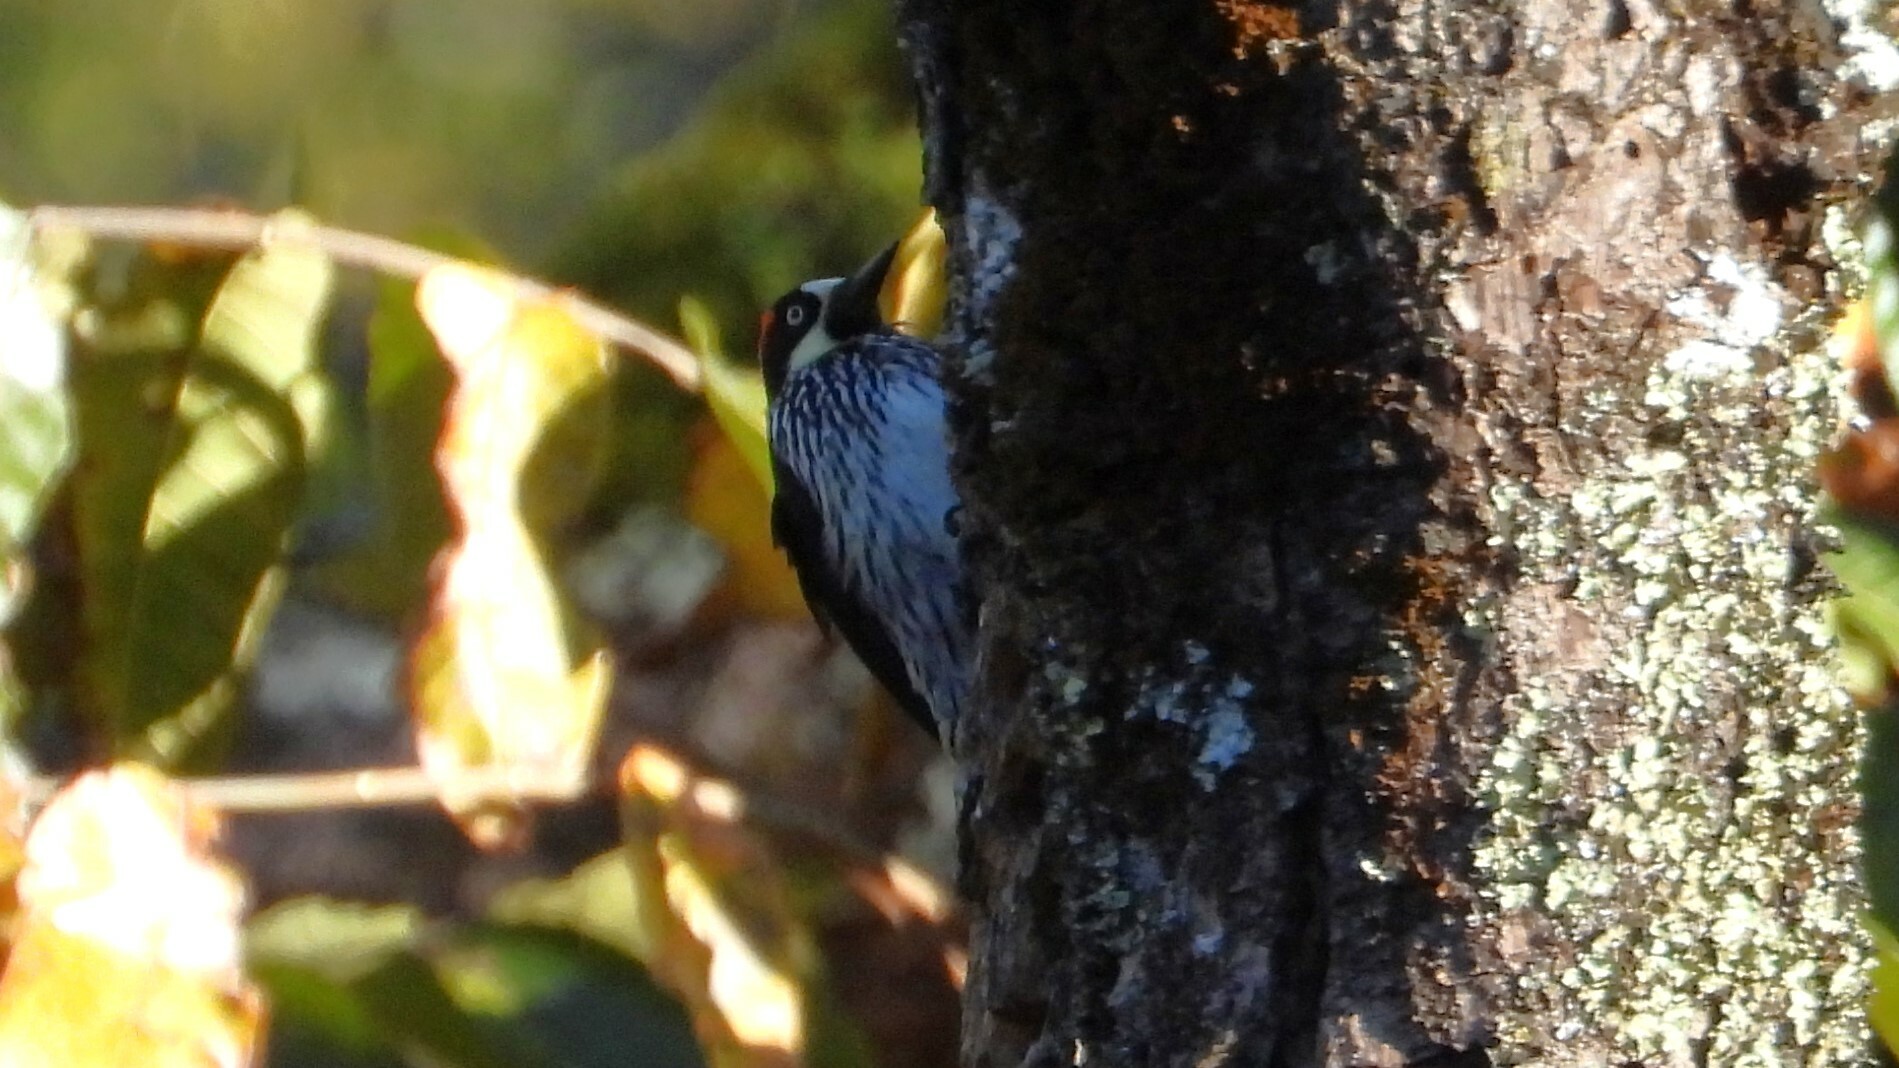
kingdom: Animalia
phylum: Chordata
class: Aves
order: Piciformes
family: Picidae
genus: Melanerpes
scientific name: Melanerpes formicivorus
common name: Acorn woodpecker
